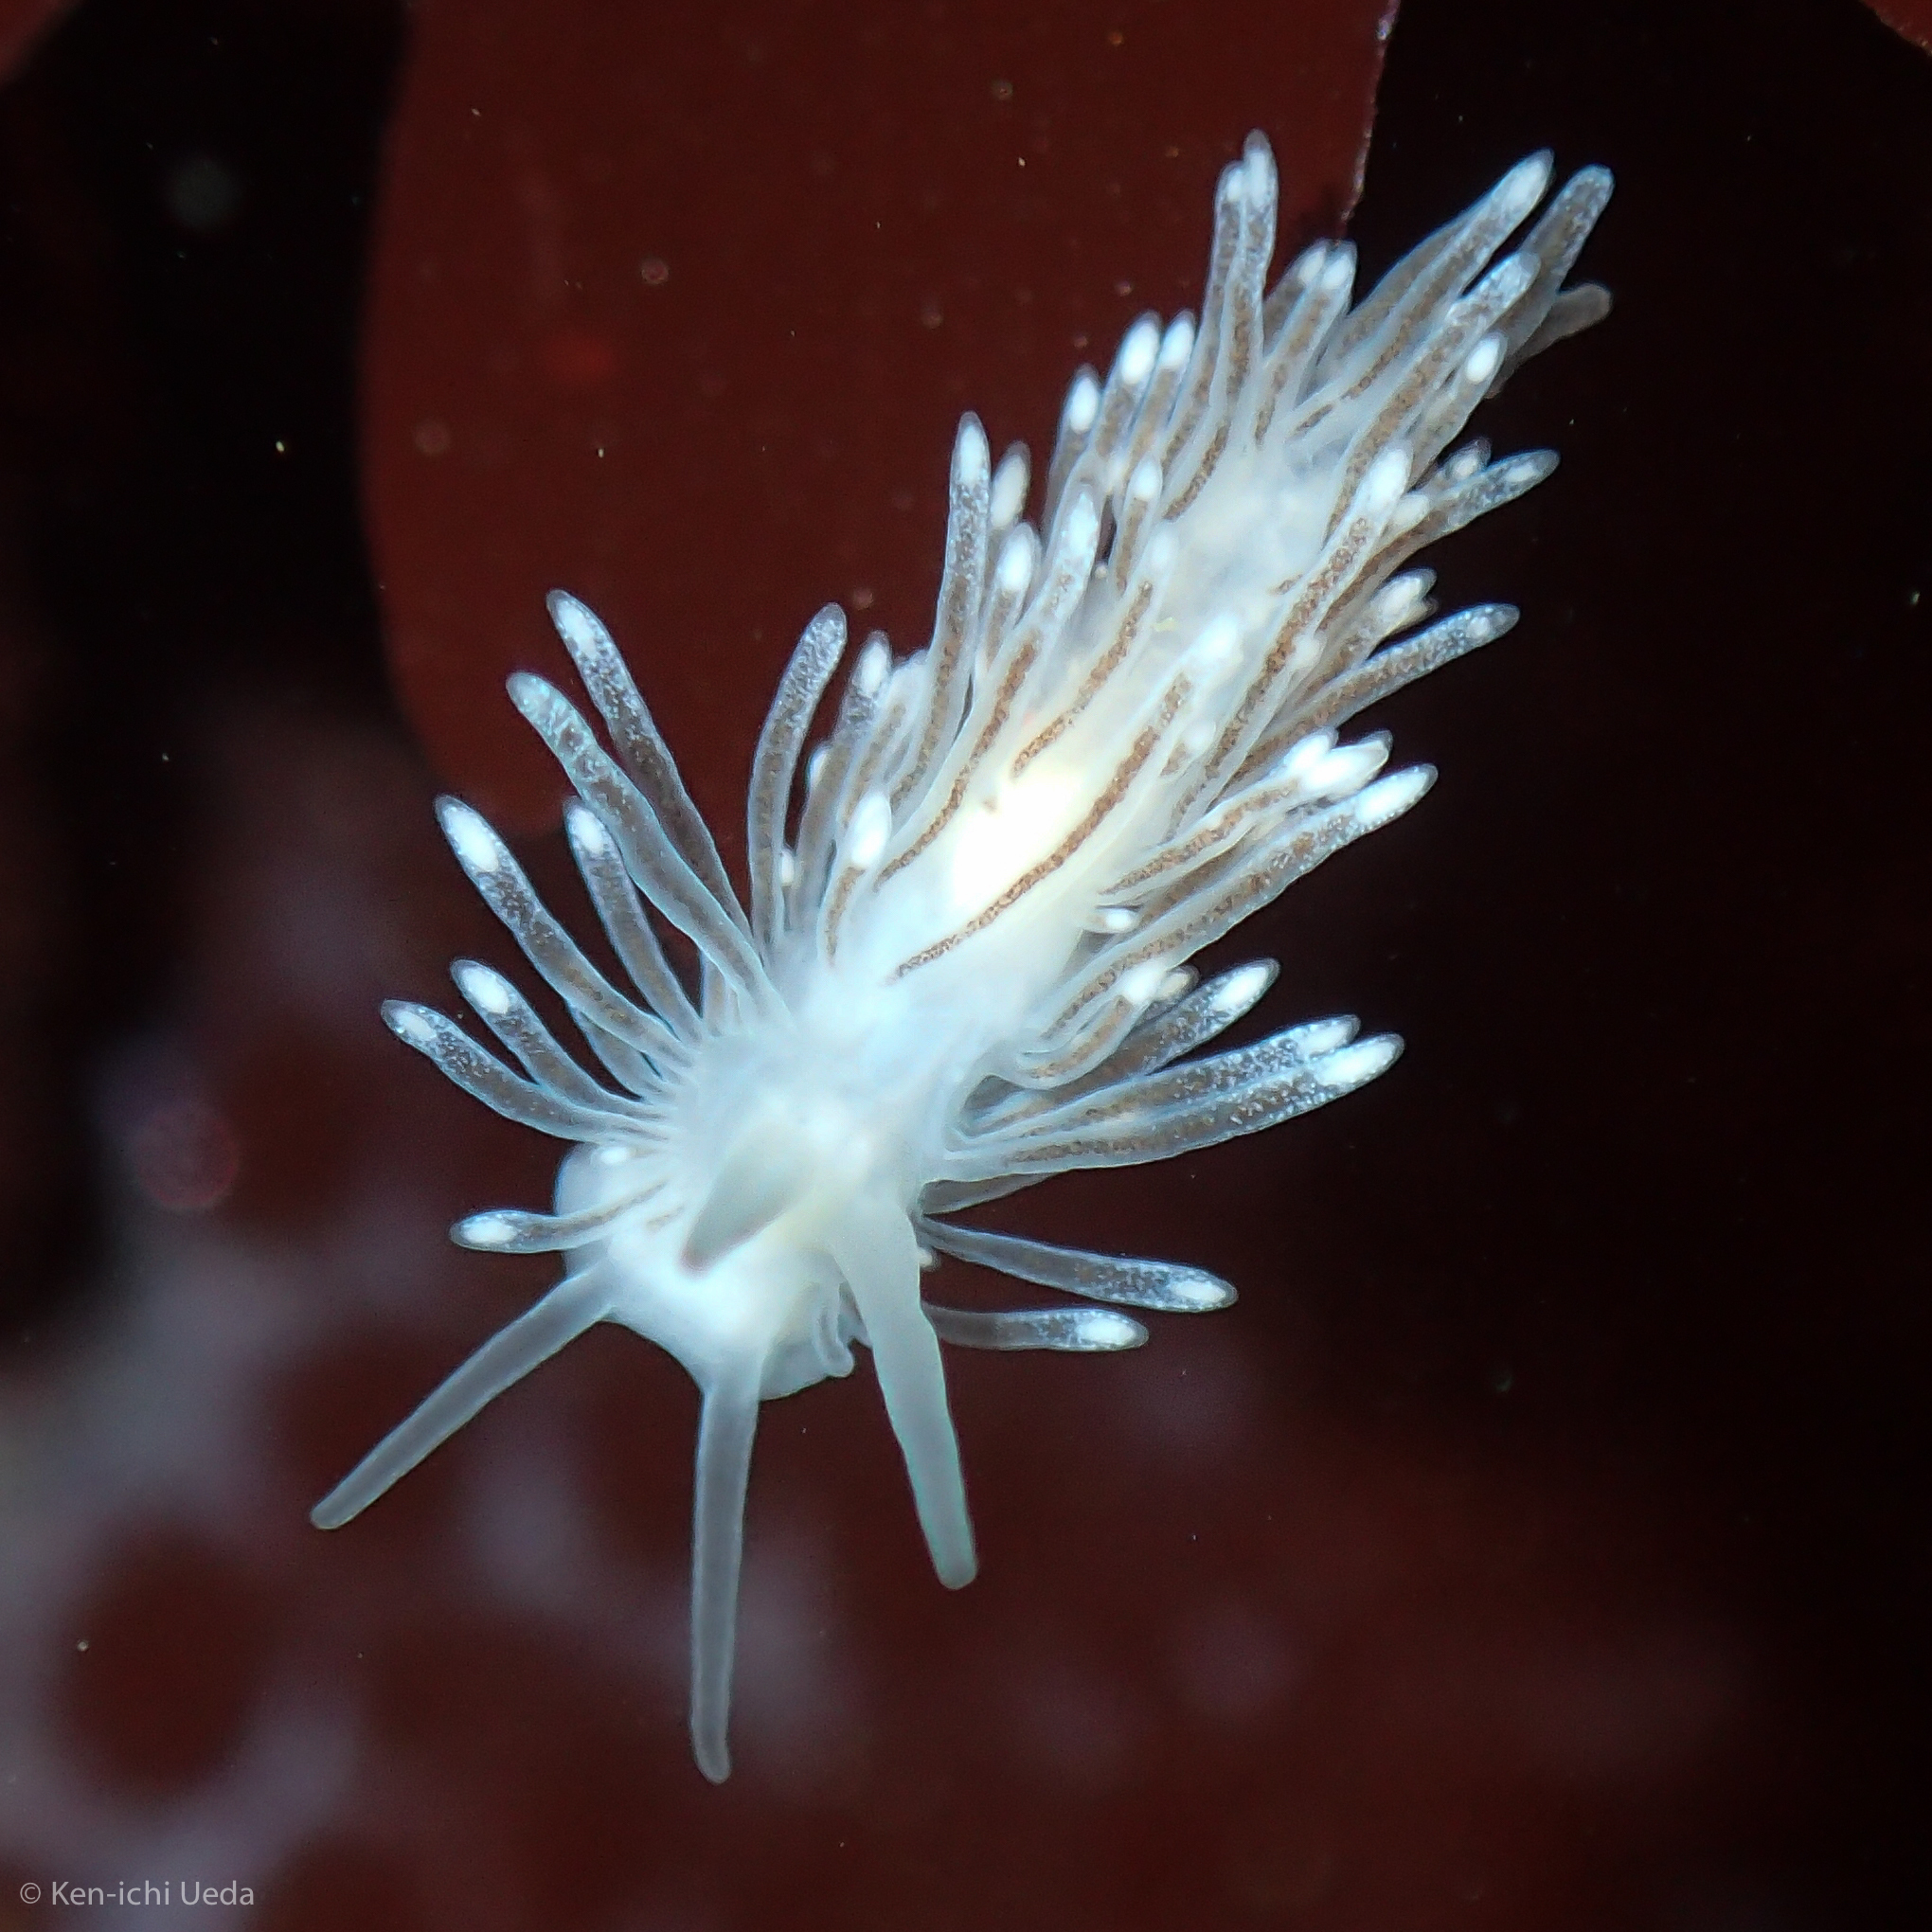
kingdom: Animalia
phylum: Mollusca
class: Gastropoda
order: Nudibranchia
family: Cuthonidae
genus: Cuthona
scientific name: Cuthona divae
